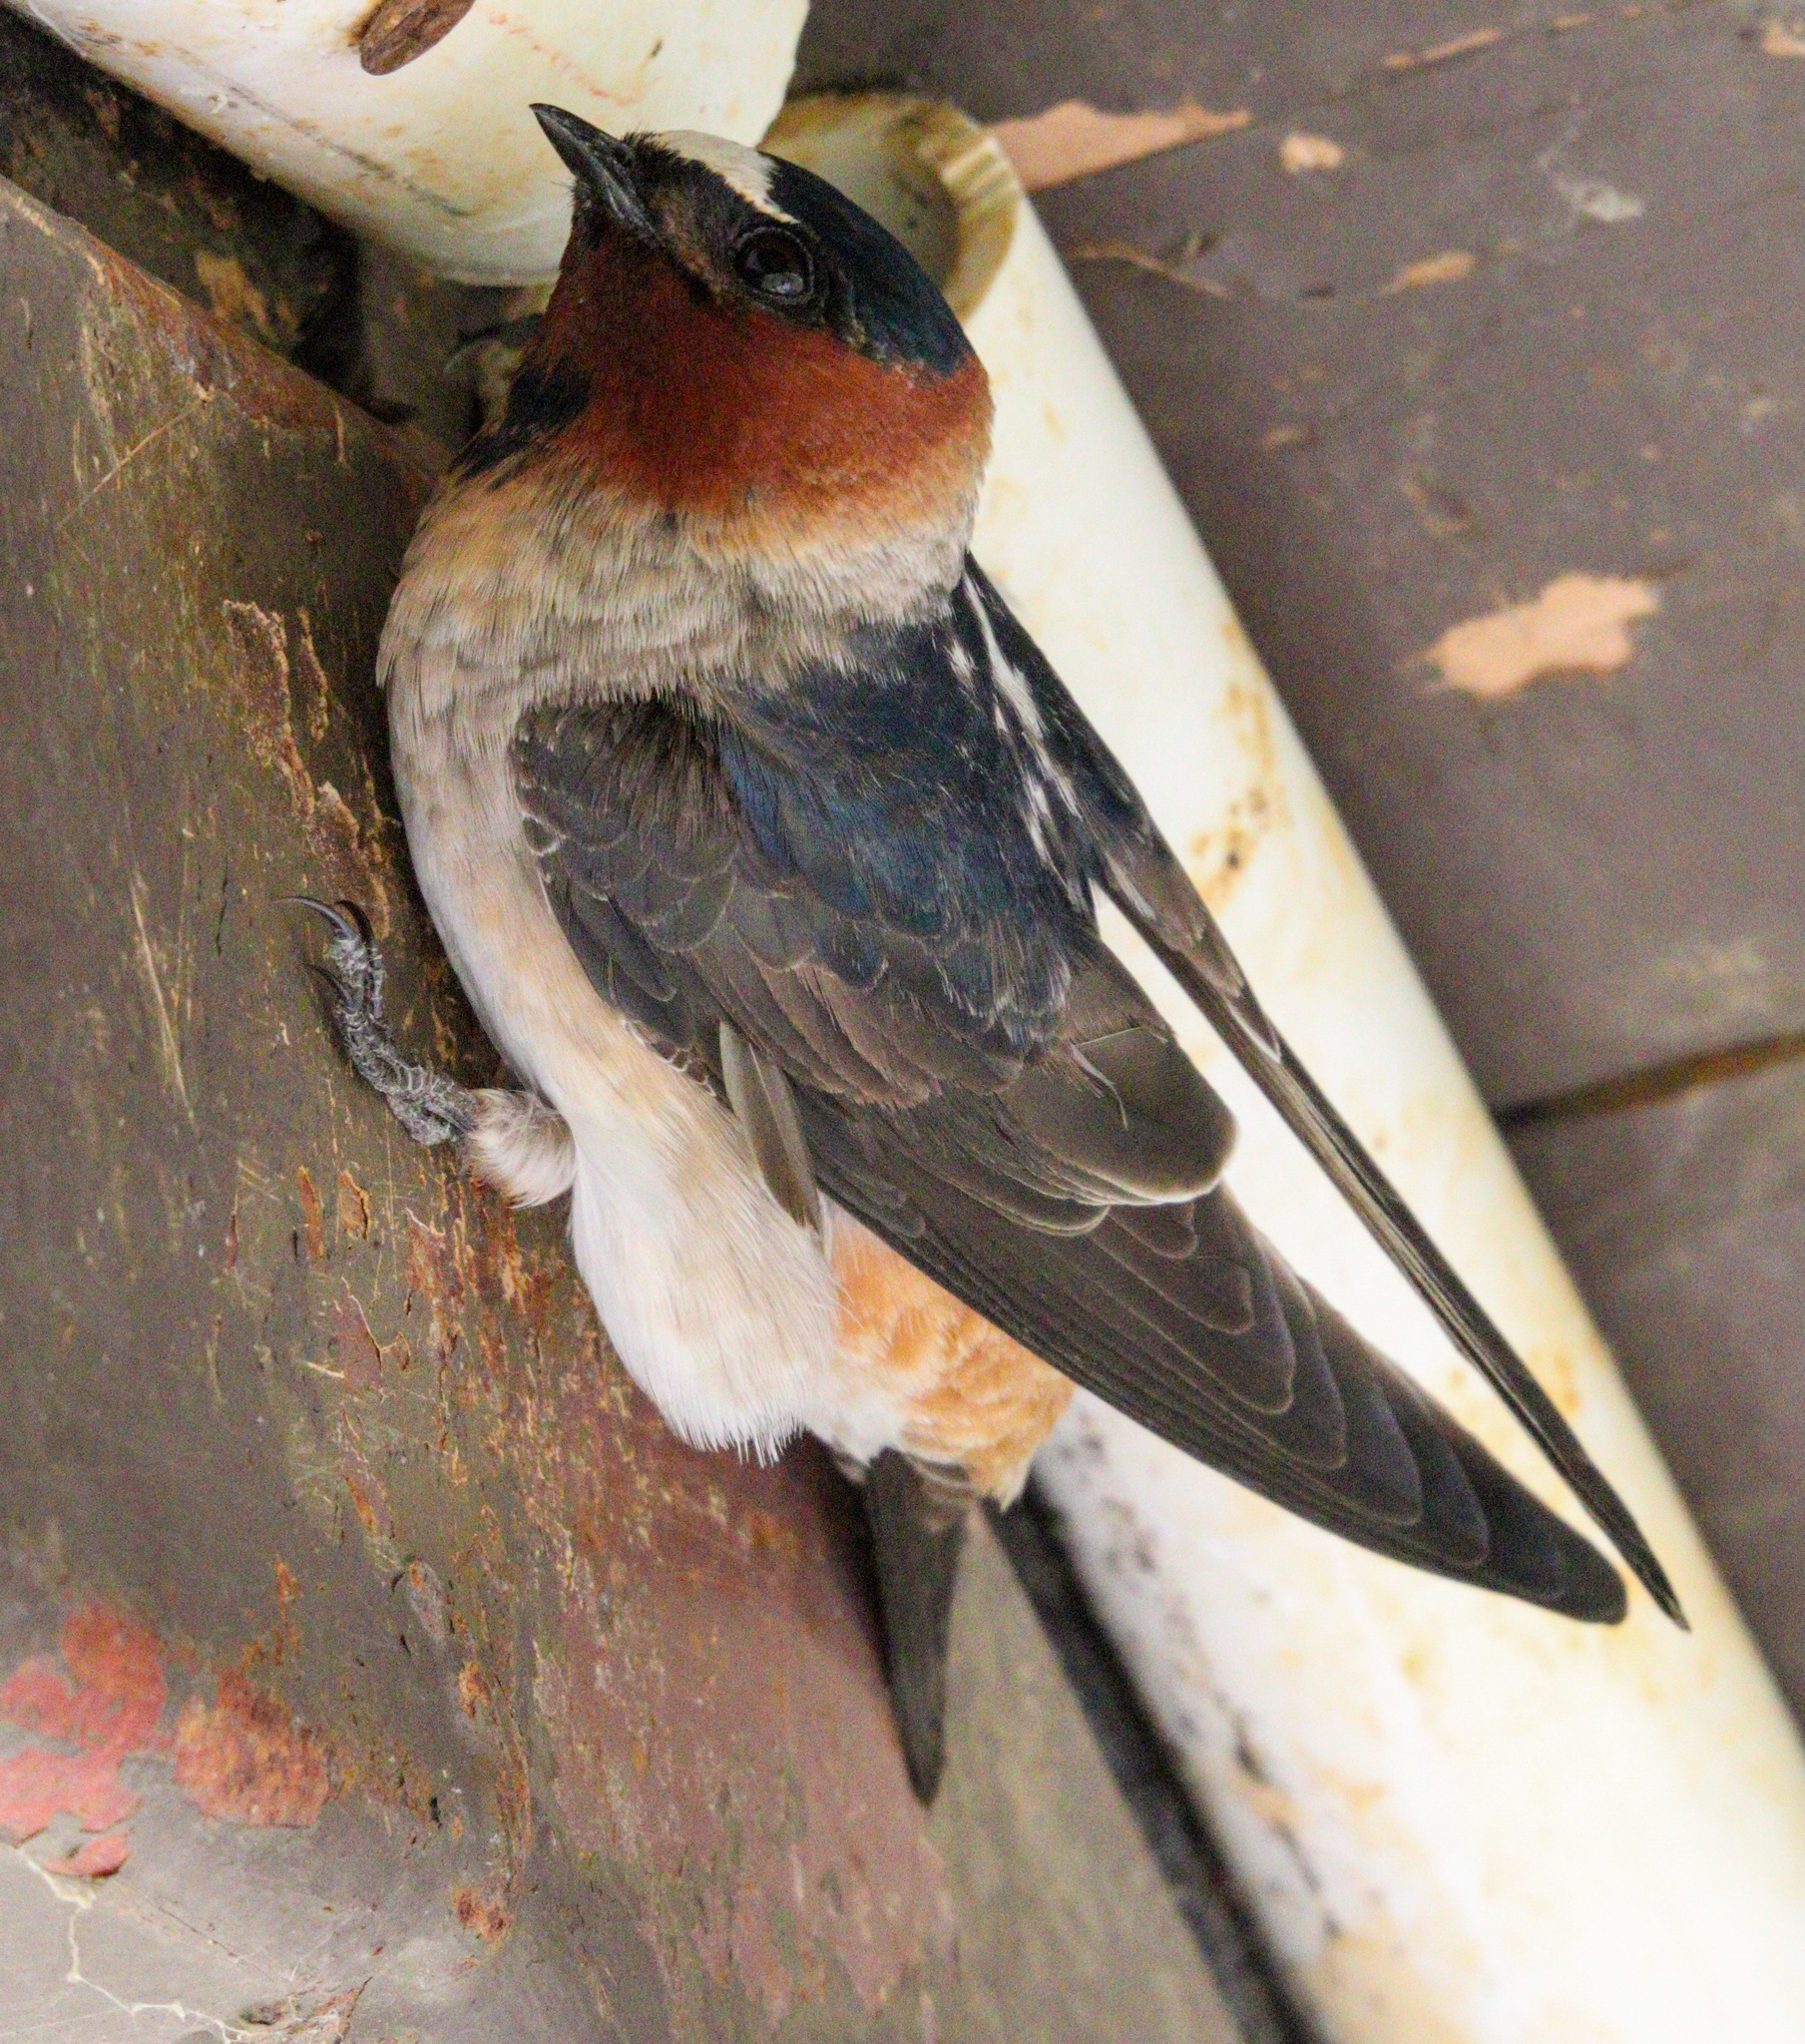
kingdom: Animalia
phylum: Chordata
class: Aves
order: Passeriformes
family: Hirundinidae
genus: Petrochelidon
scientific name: Petrochelidon pyrrhonota
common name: American cliff swallow
